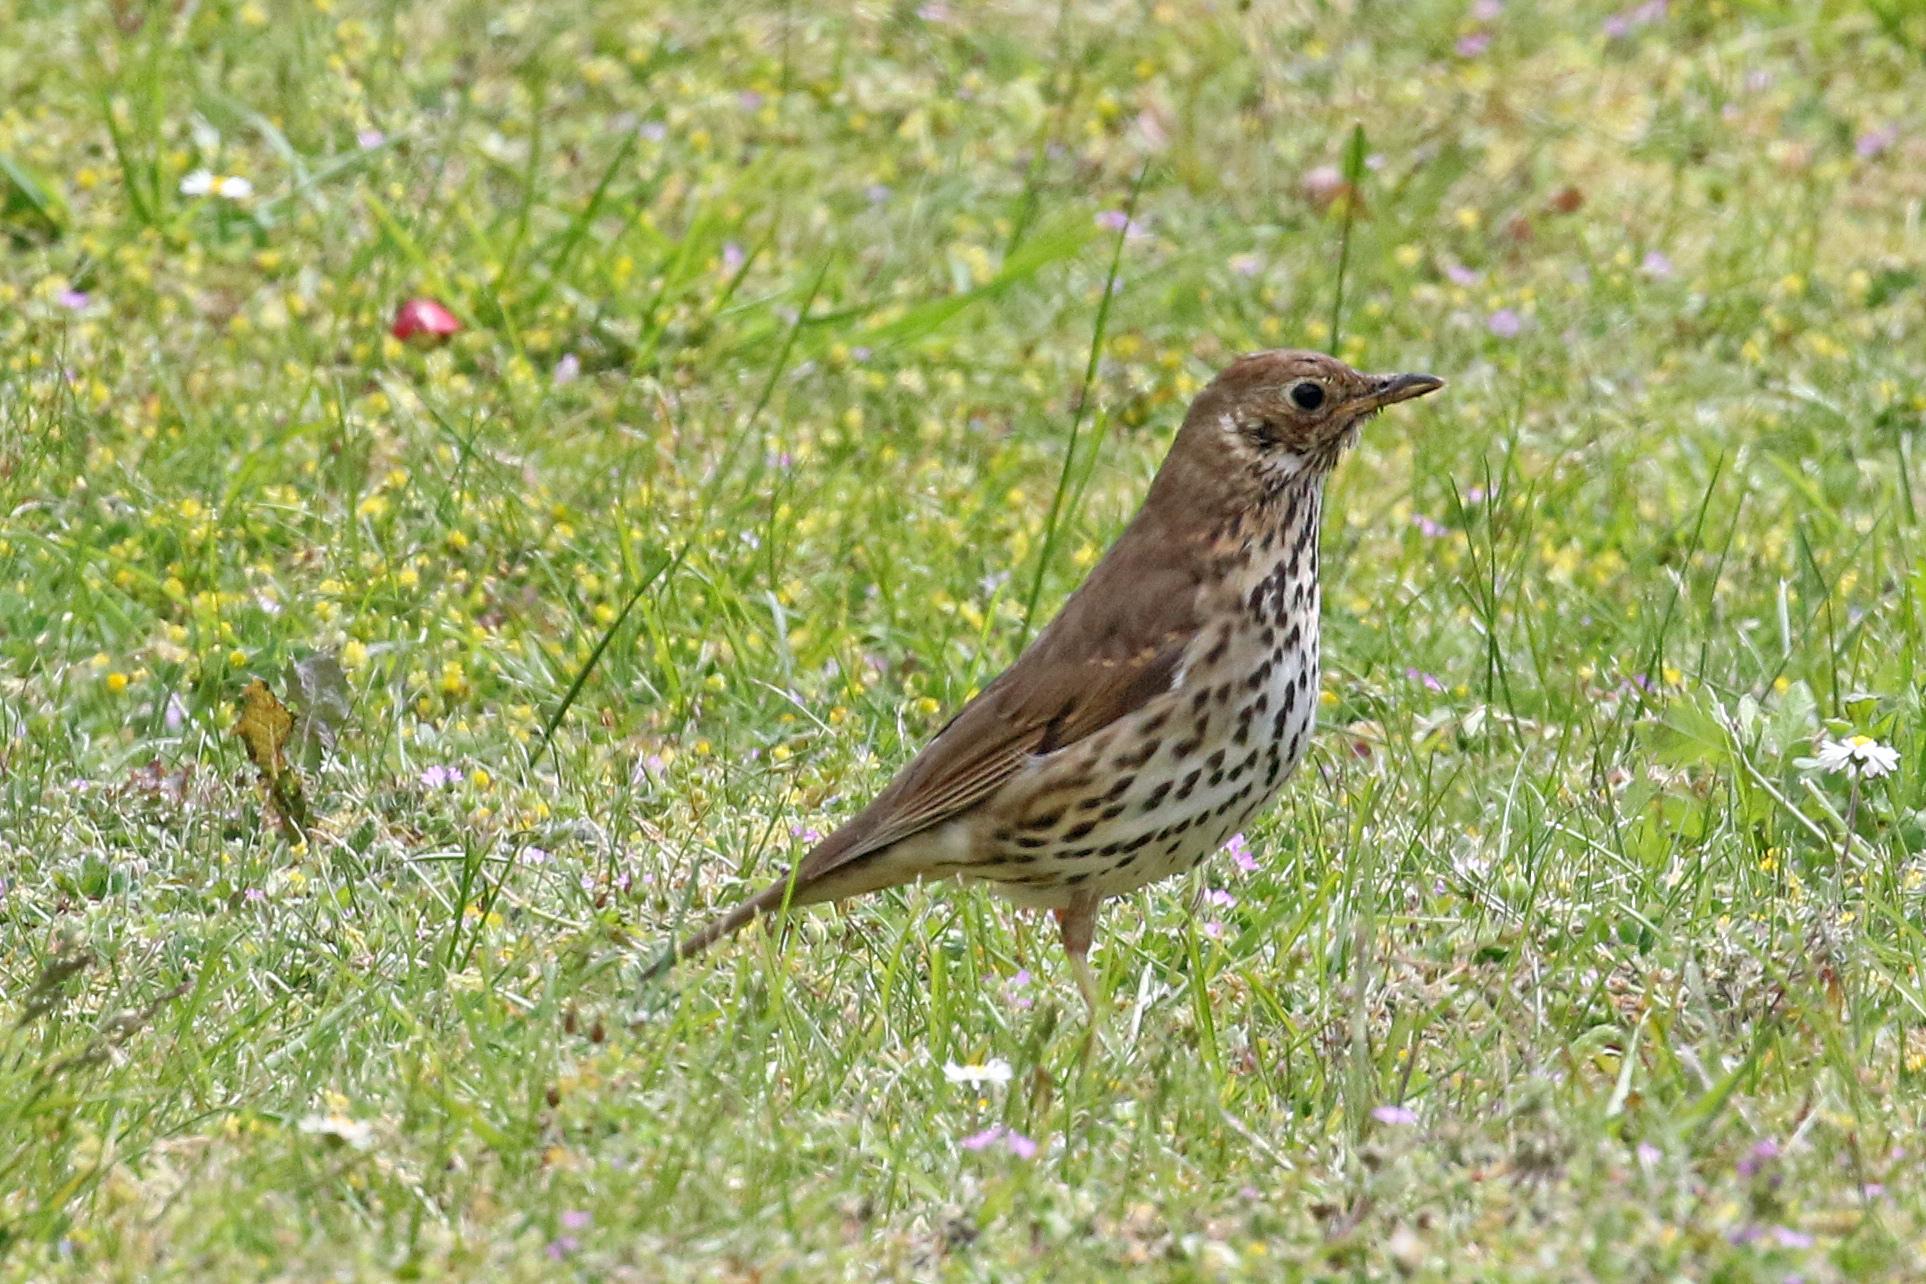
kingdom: Animalia
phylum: Chordata
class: Aves
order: Passeriformes
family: Turdidae
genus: Turdus
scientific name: Turdus philomelos
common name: Song thrush
